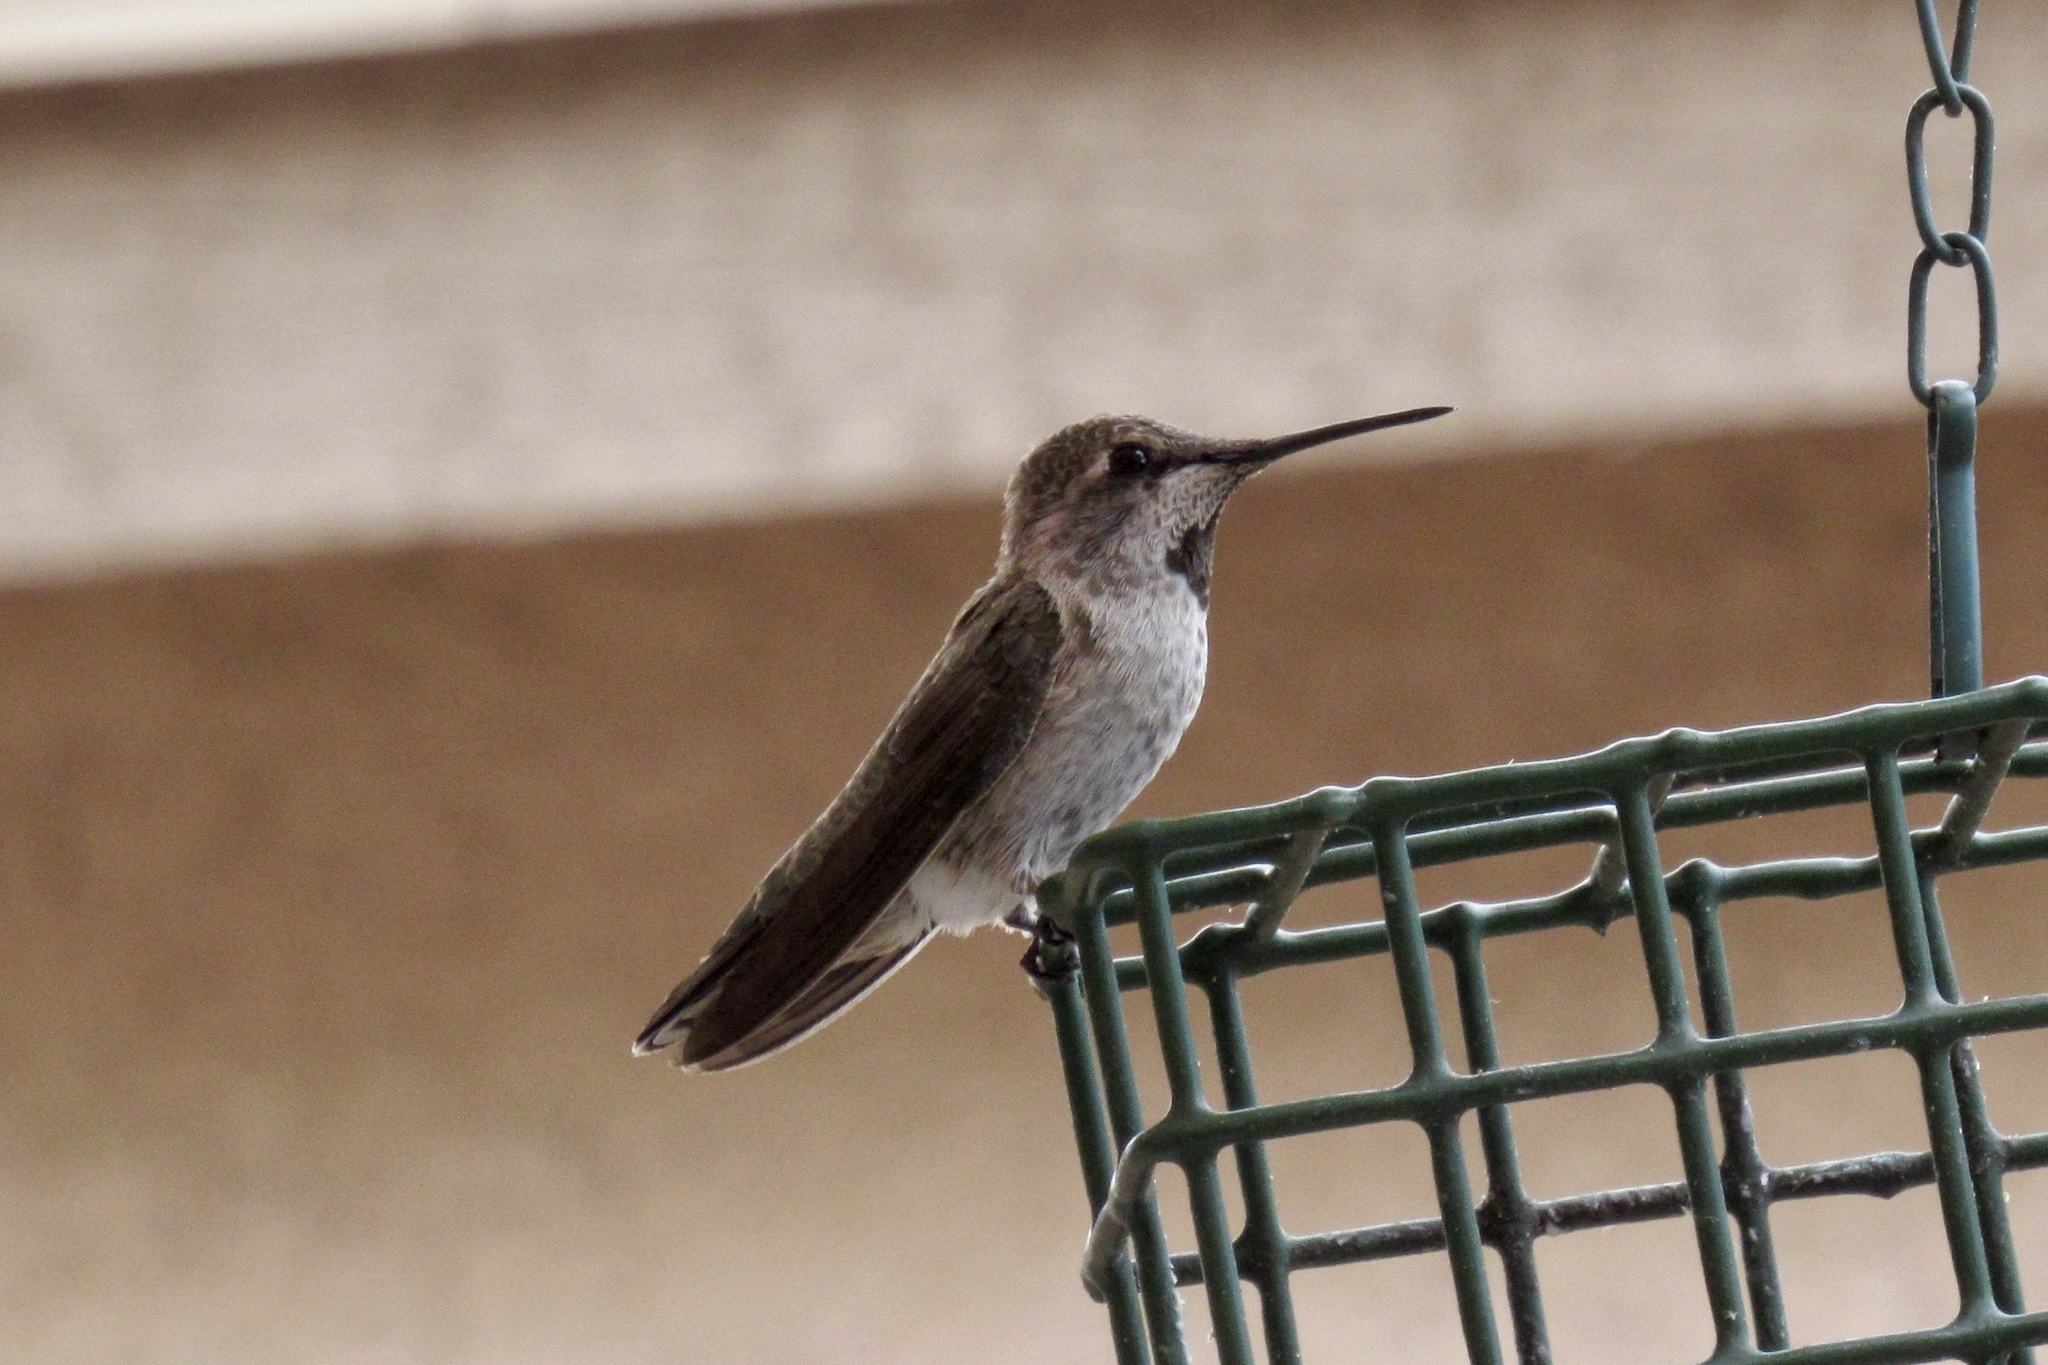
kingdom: Animalia
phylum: Chordata
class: Aves
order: Apodiformes
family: Trochilidae
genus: Calypte
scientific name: Calypte anna
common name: Anna's hummingbird
